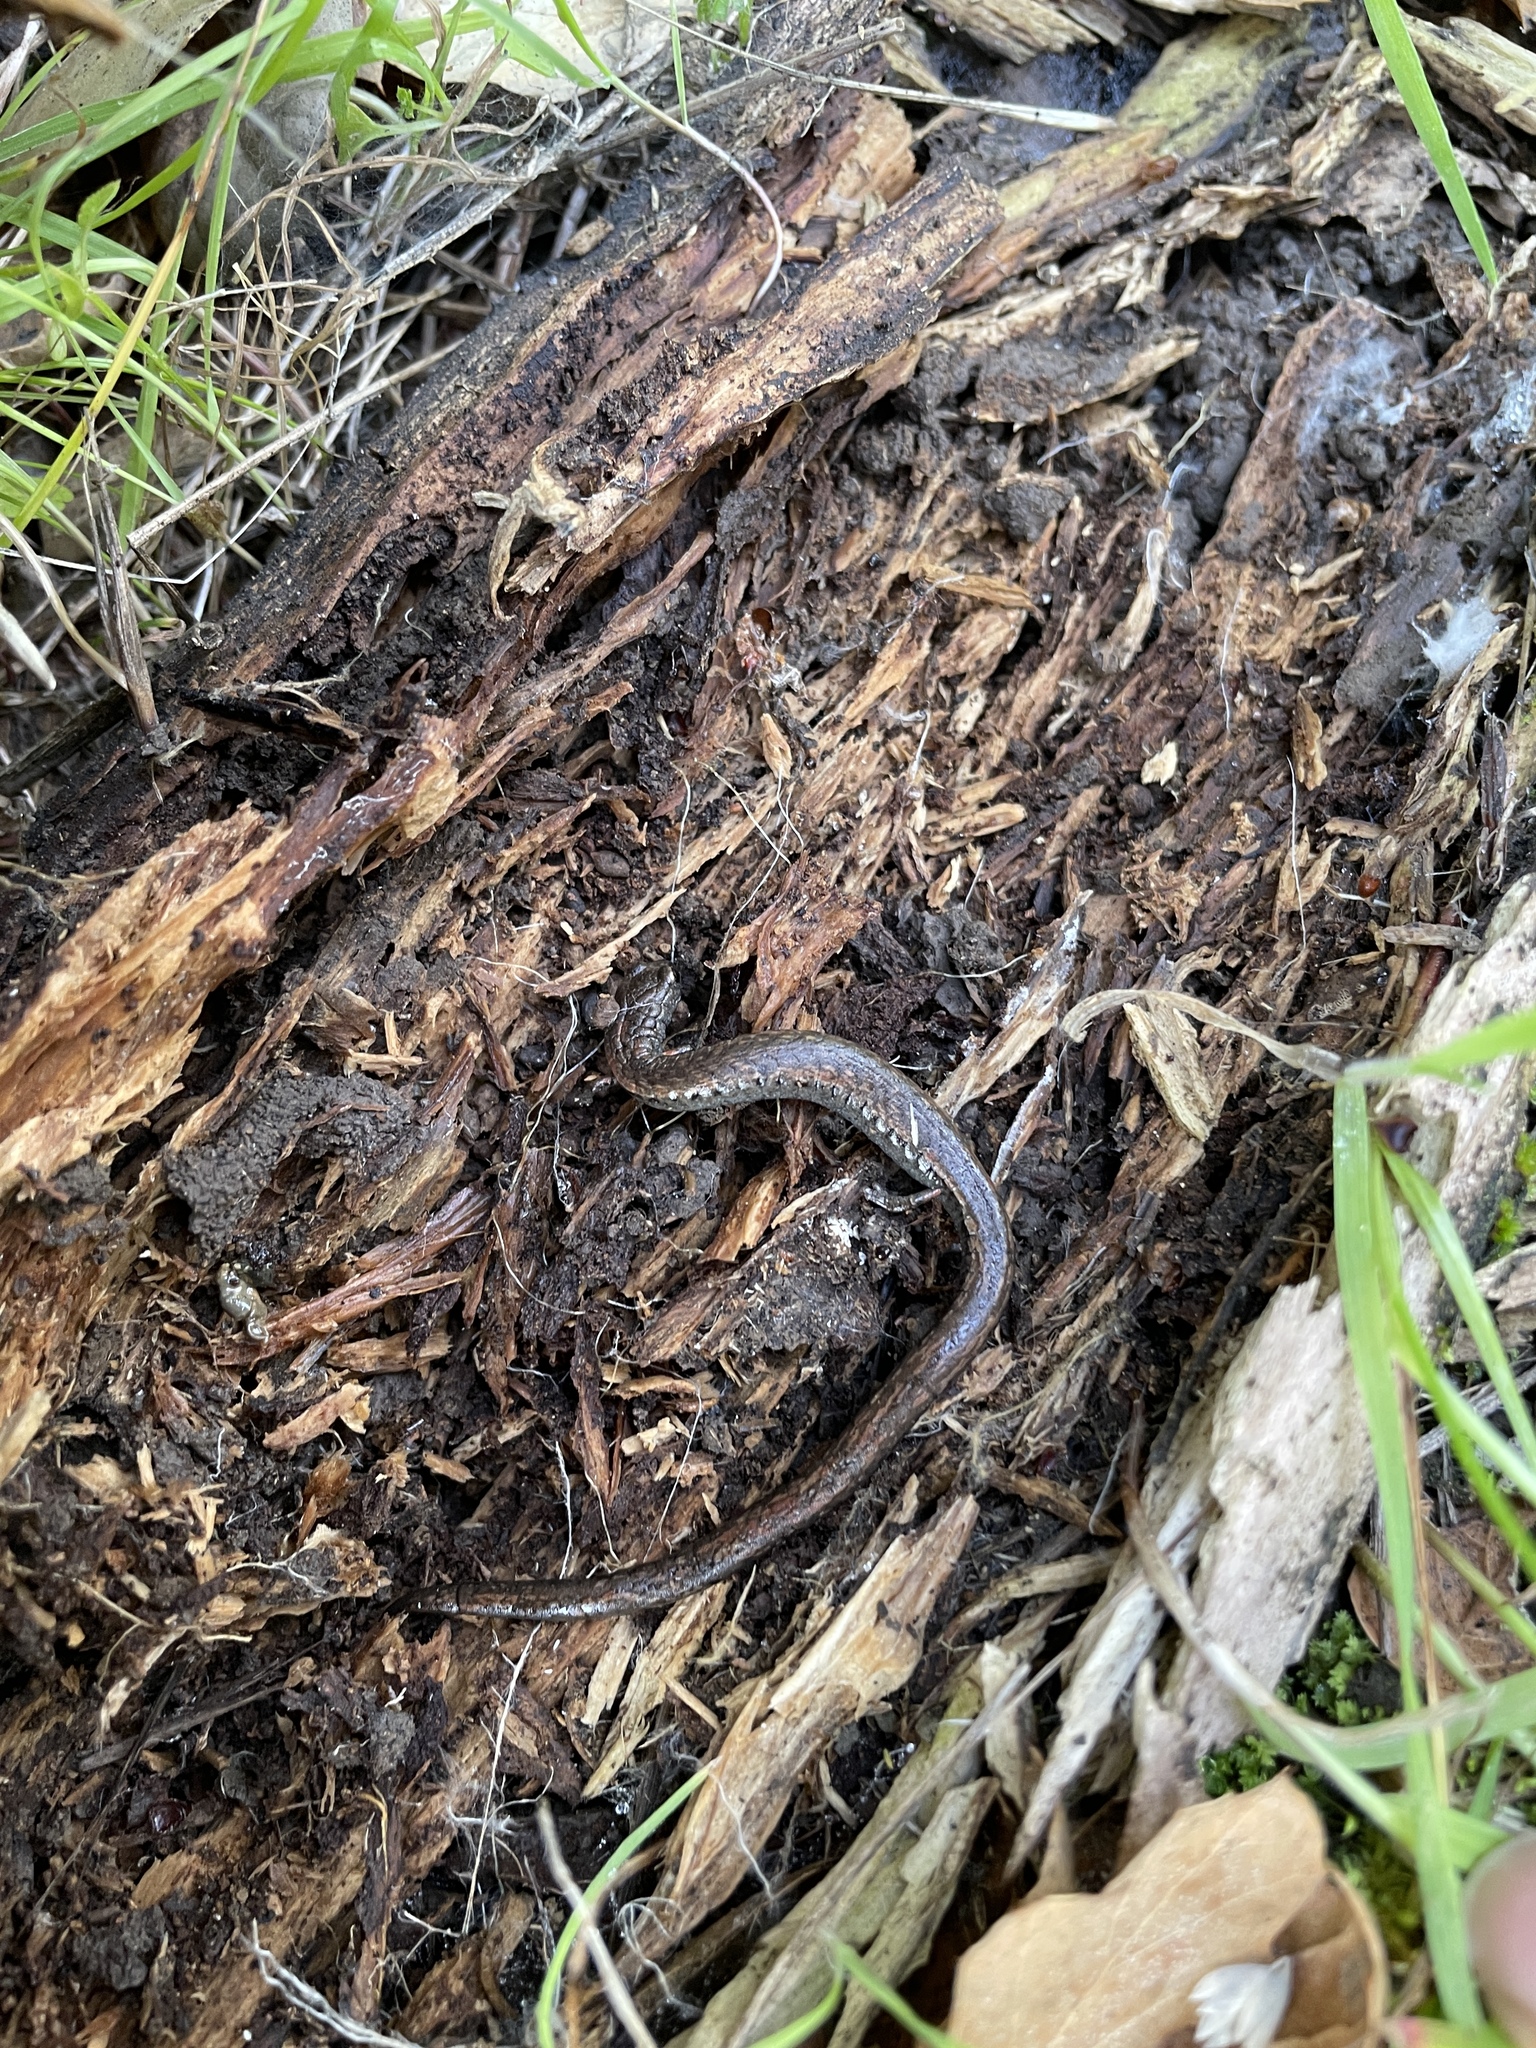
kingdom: Animalia
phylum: Chordata
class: Amphibia
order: Caudata
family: Plethodontidae
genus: Batrachoseps
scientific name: Batrachoseps attenuatus
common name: California slender salamander
